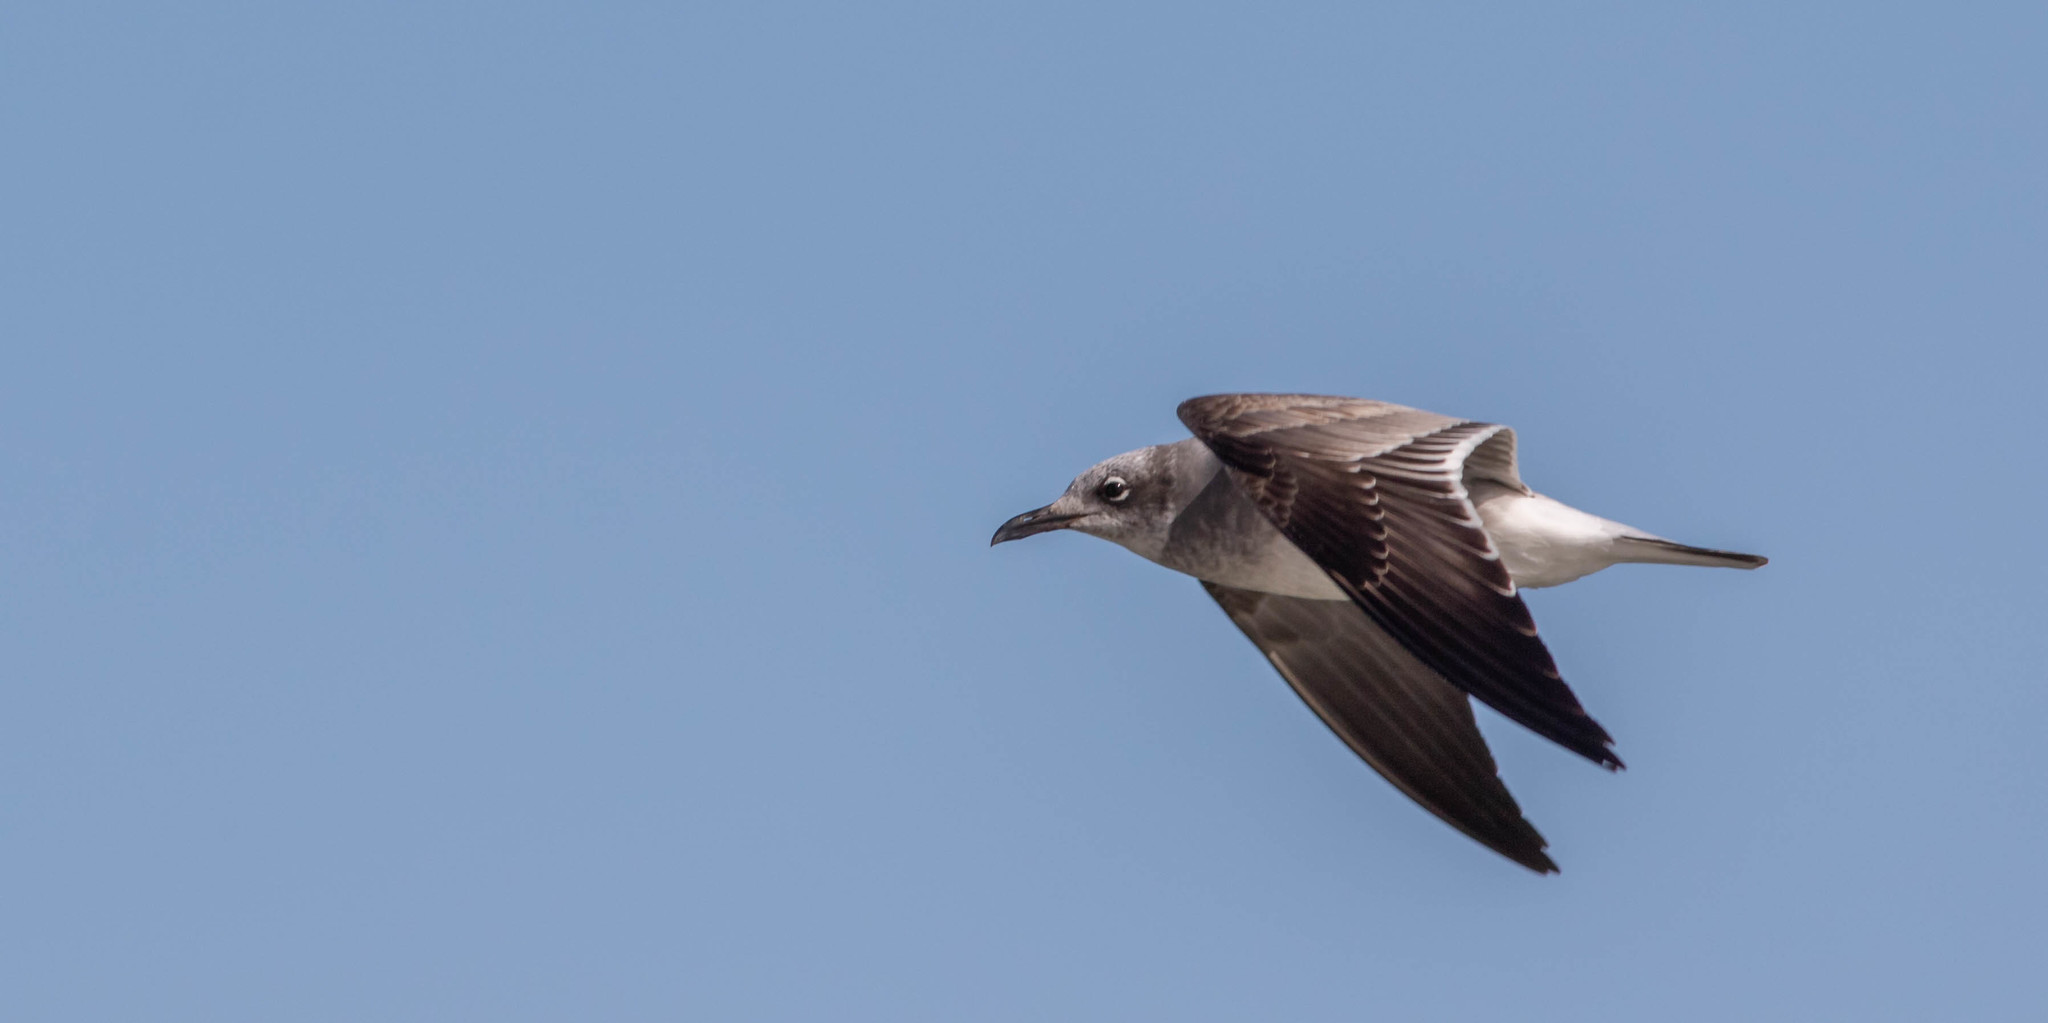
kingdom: Animalia
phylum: Chordata
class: Aves
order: Charadriiformes
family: Laridae
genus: Leucophaeus
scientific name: Leucophaeus atricilla
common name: Laughing gull
